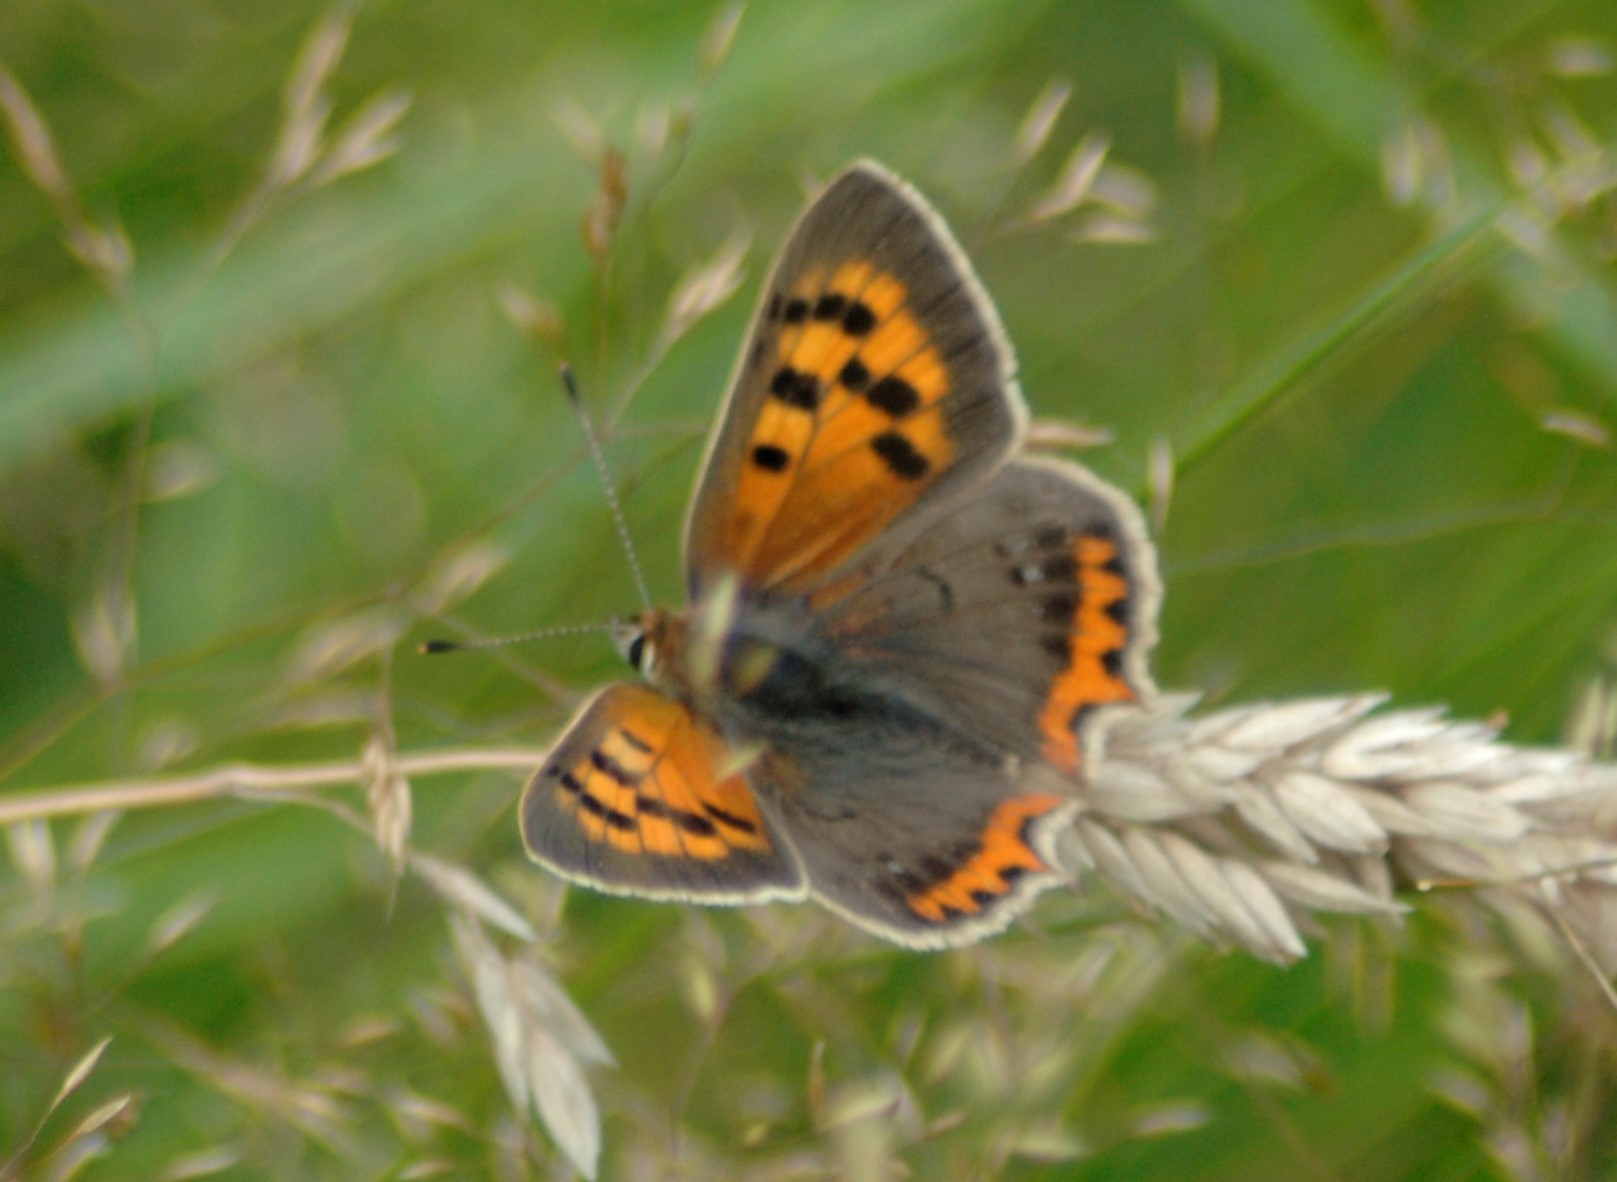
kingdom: Animalia
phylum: Arthropoda
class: Insecta
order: Lepidoptera
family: Lycaenidae
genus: Lycaena
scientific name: Lycaena phlaeas
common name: Small copper
